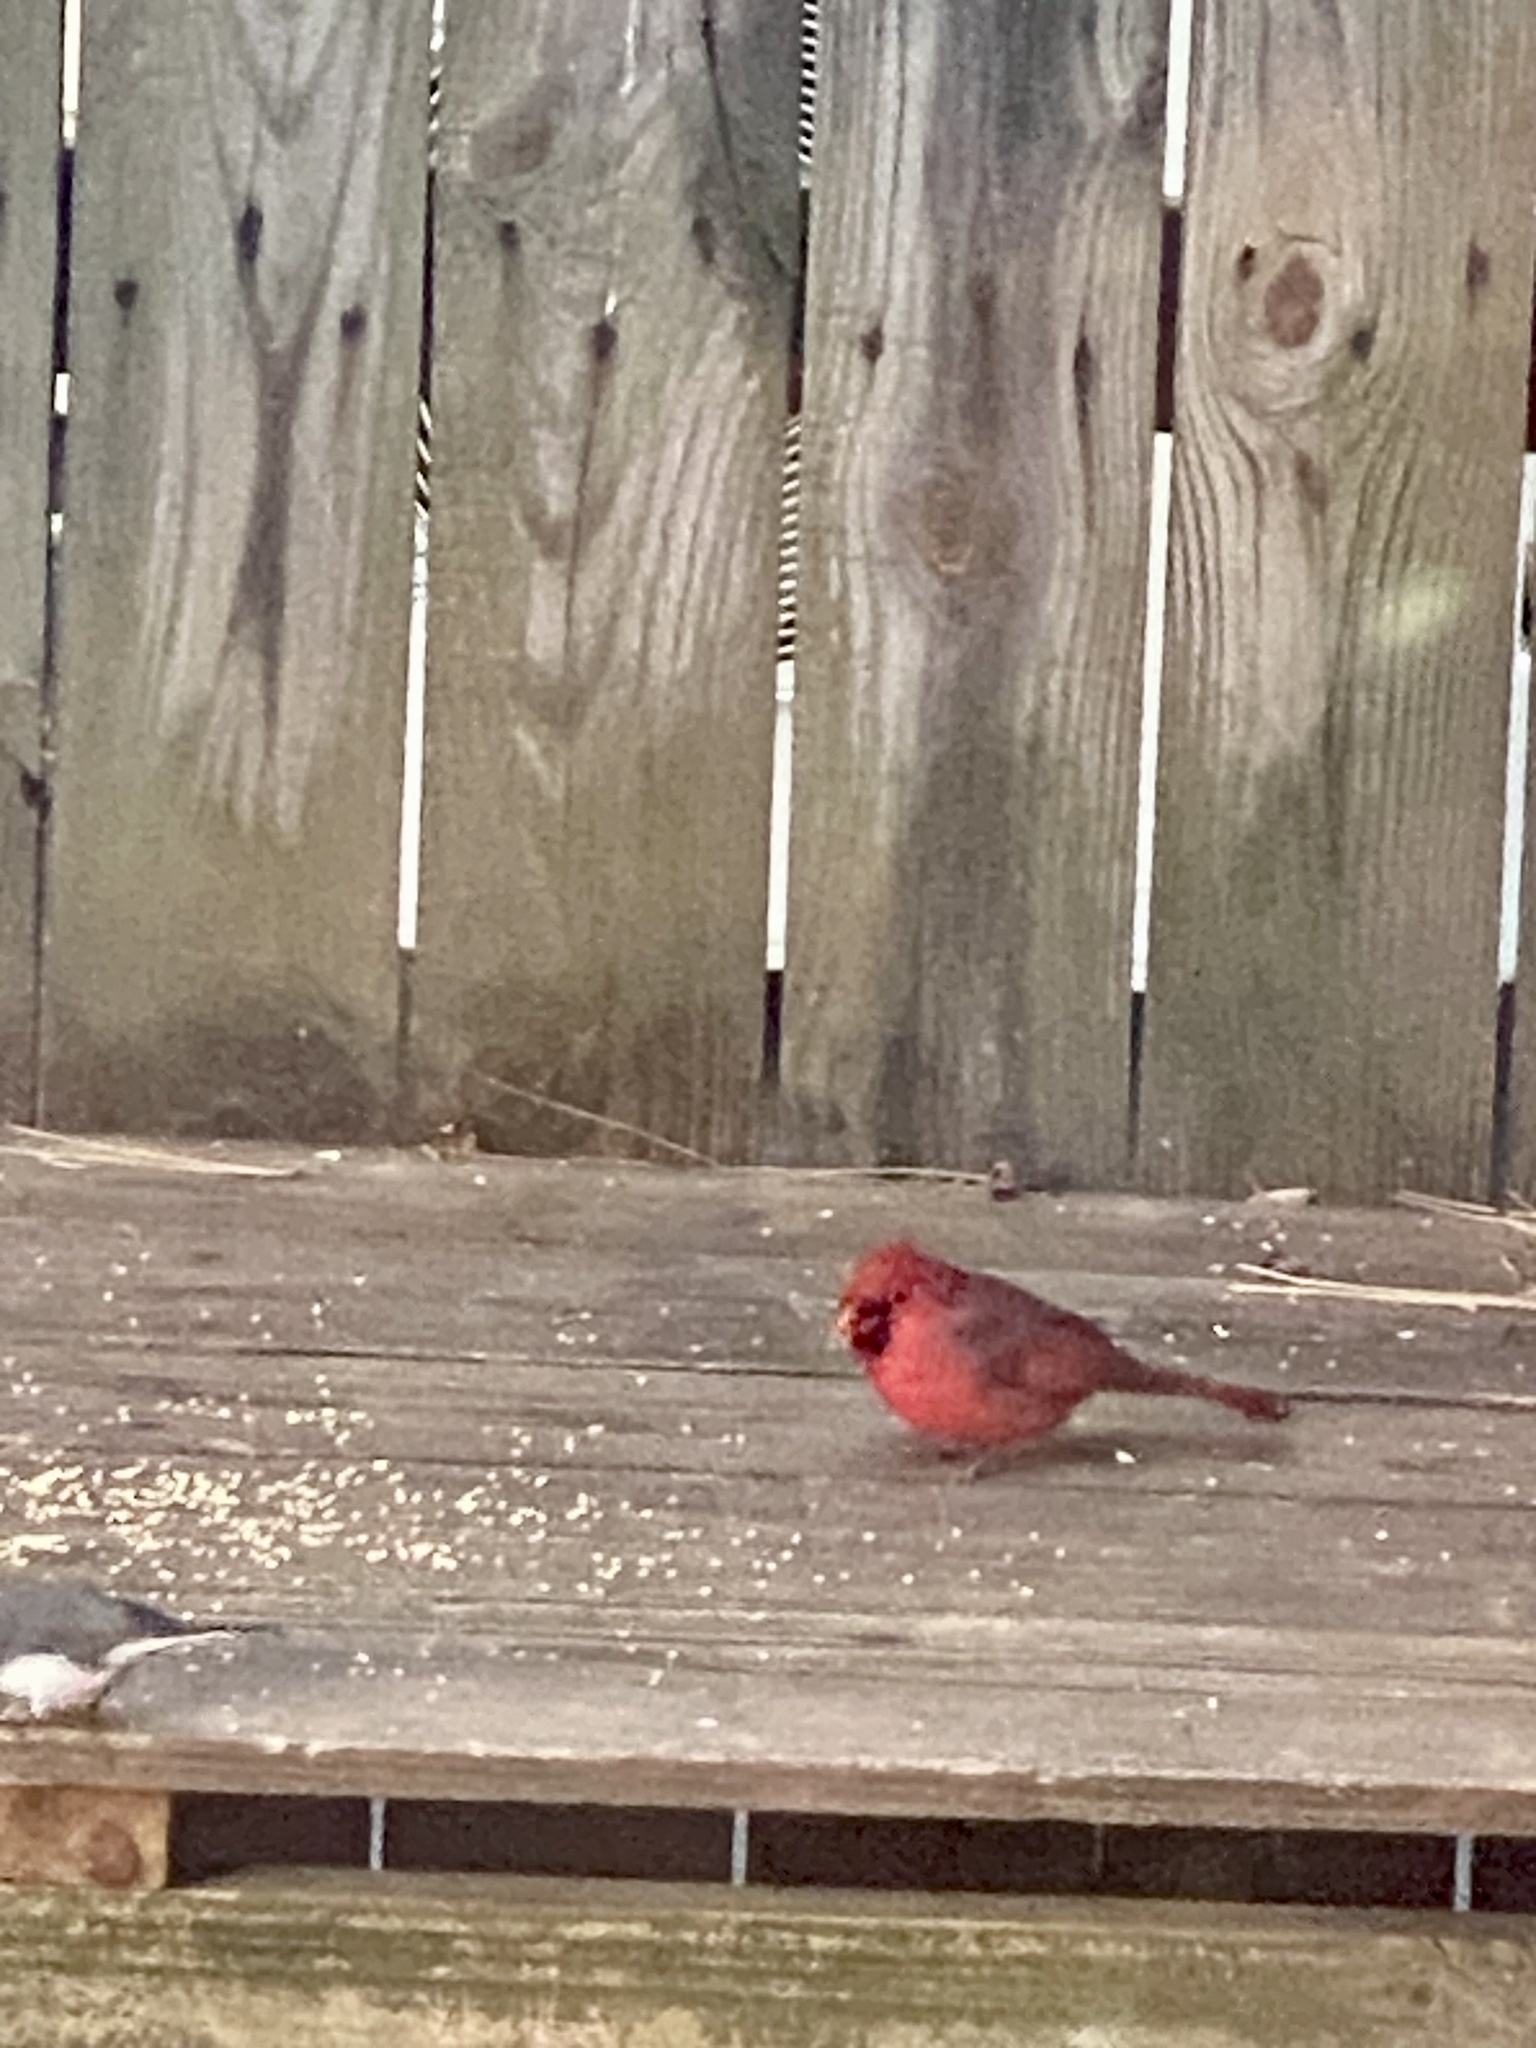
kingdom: Animalia
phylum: Chordata
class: Aves
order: Passeriformes
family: Cardinalidae
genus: Cardinalis
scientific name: Cardinalis cardinalis
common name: Northern cardinal
